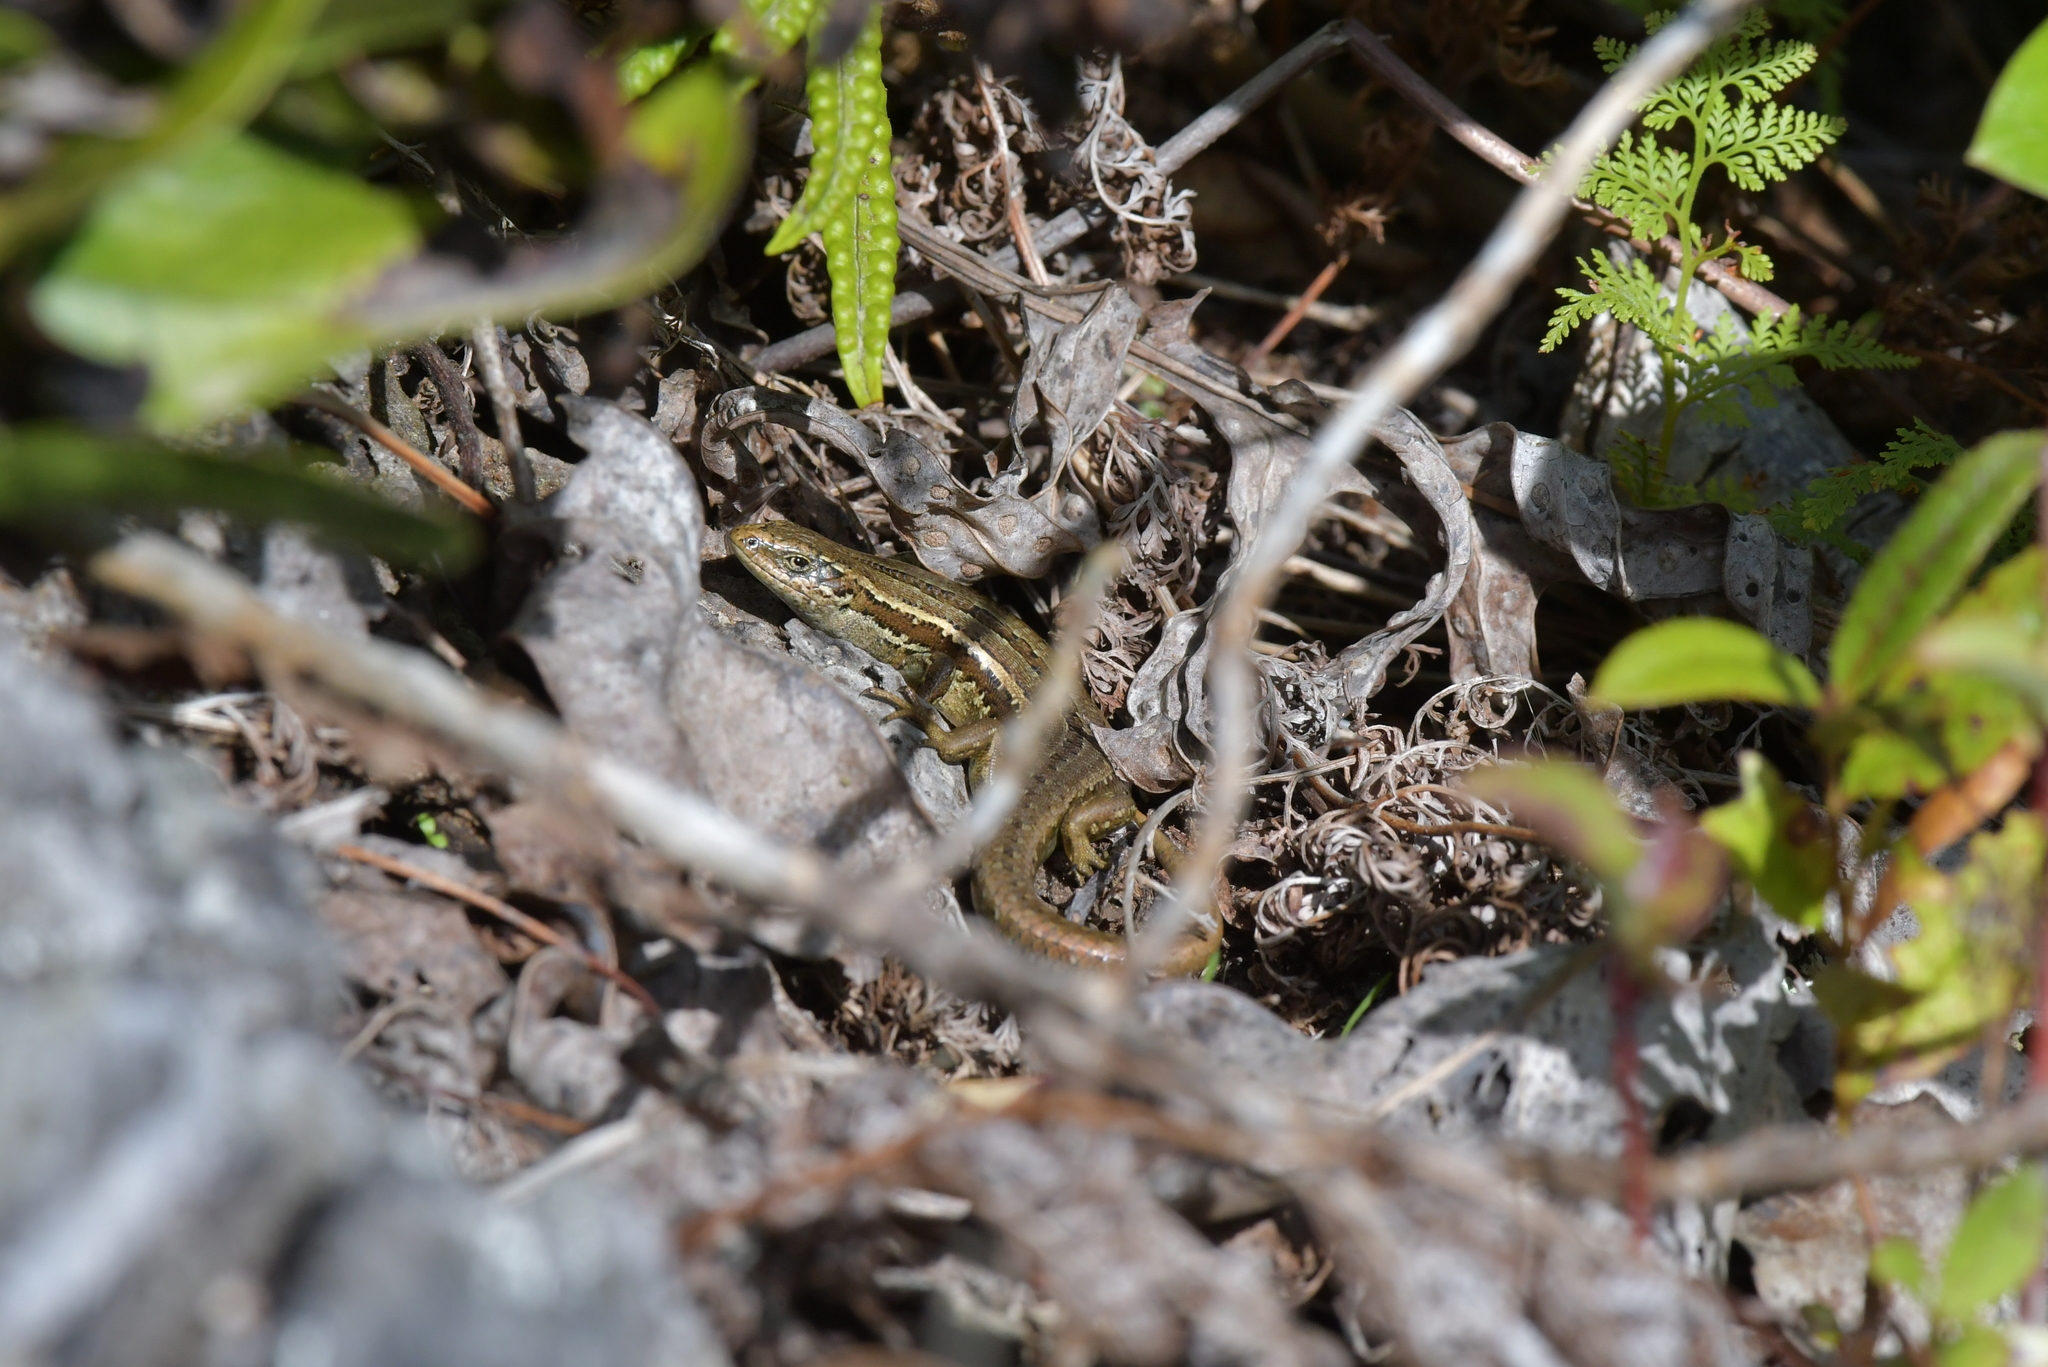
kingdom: Animalia
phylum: Chordata
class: Squamata
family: Scincidae
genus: Oligosoma
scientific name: Oligosoma polychroma
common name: Common new zealand skink
